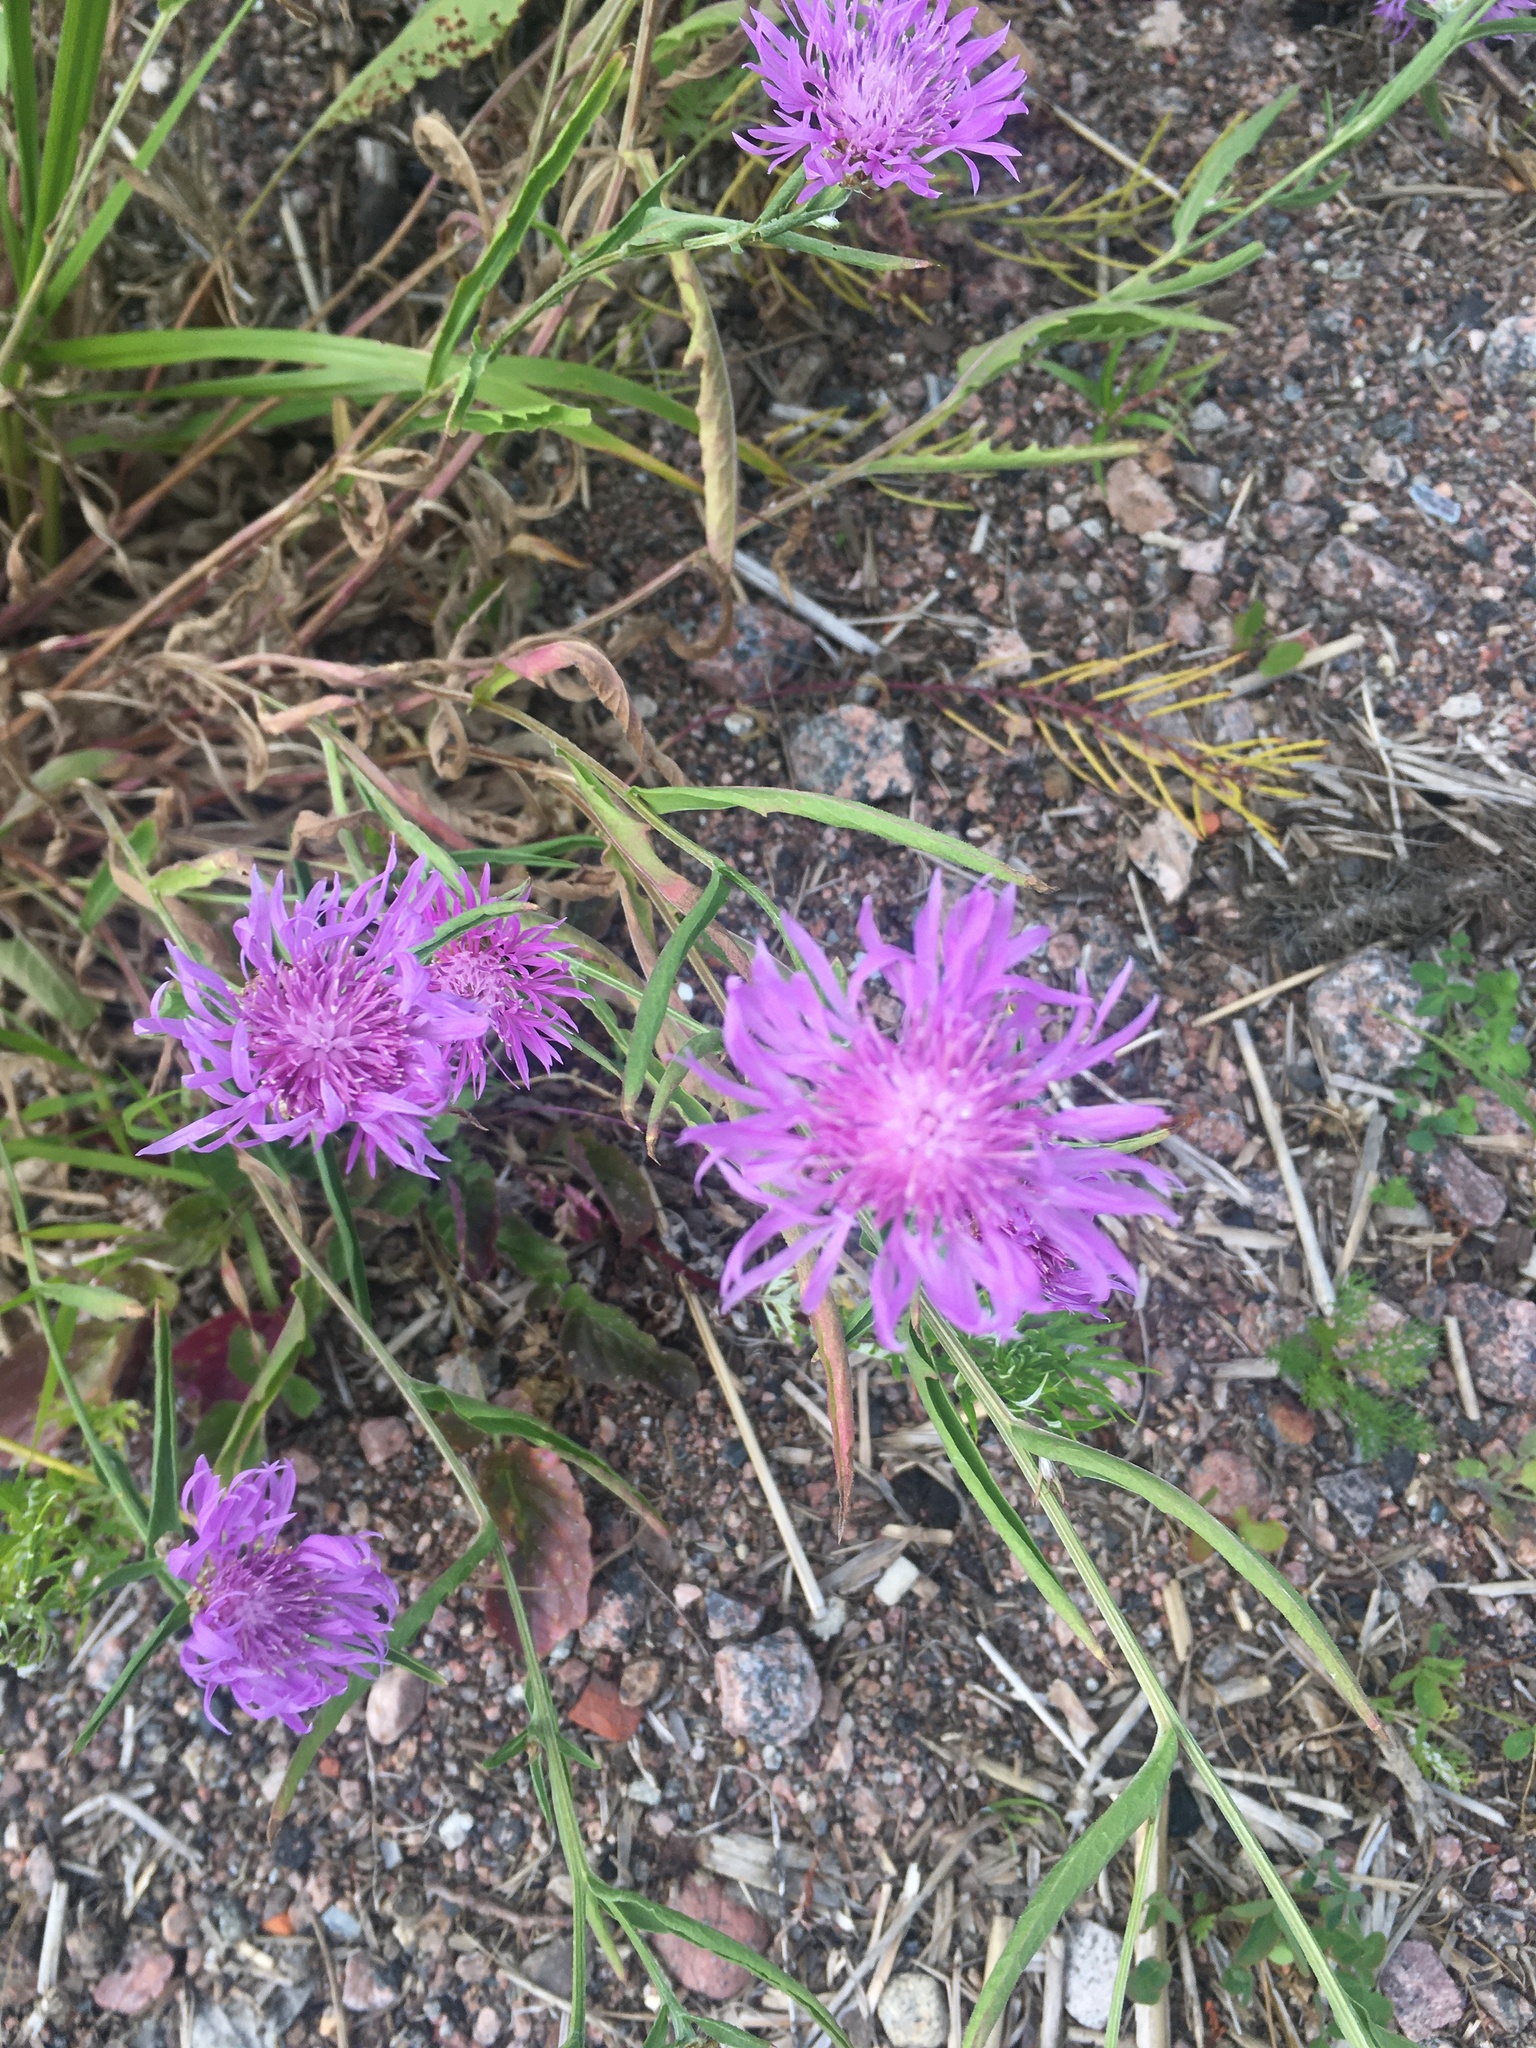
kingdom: Plantae
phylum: Tracheophyta
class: Magnoliopsida
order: Asterales
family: Asteraceae
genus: Centaurea
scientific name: Centaurea jacea
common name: Brown knapweed
